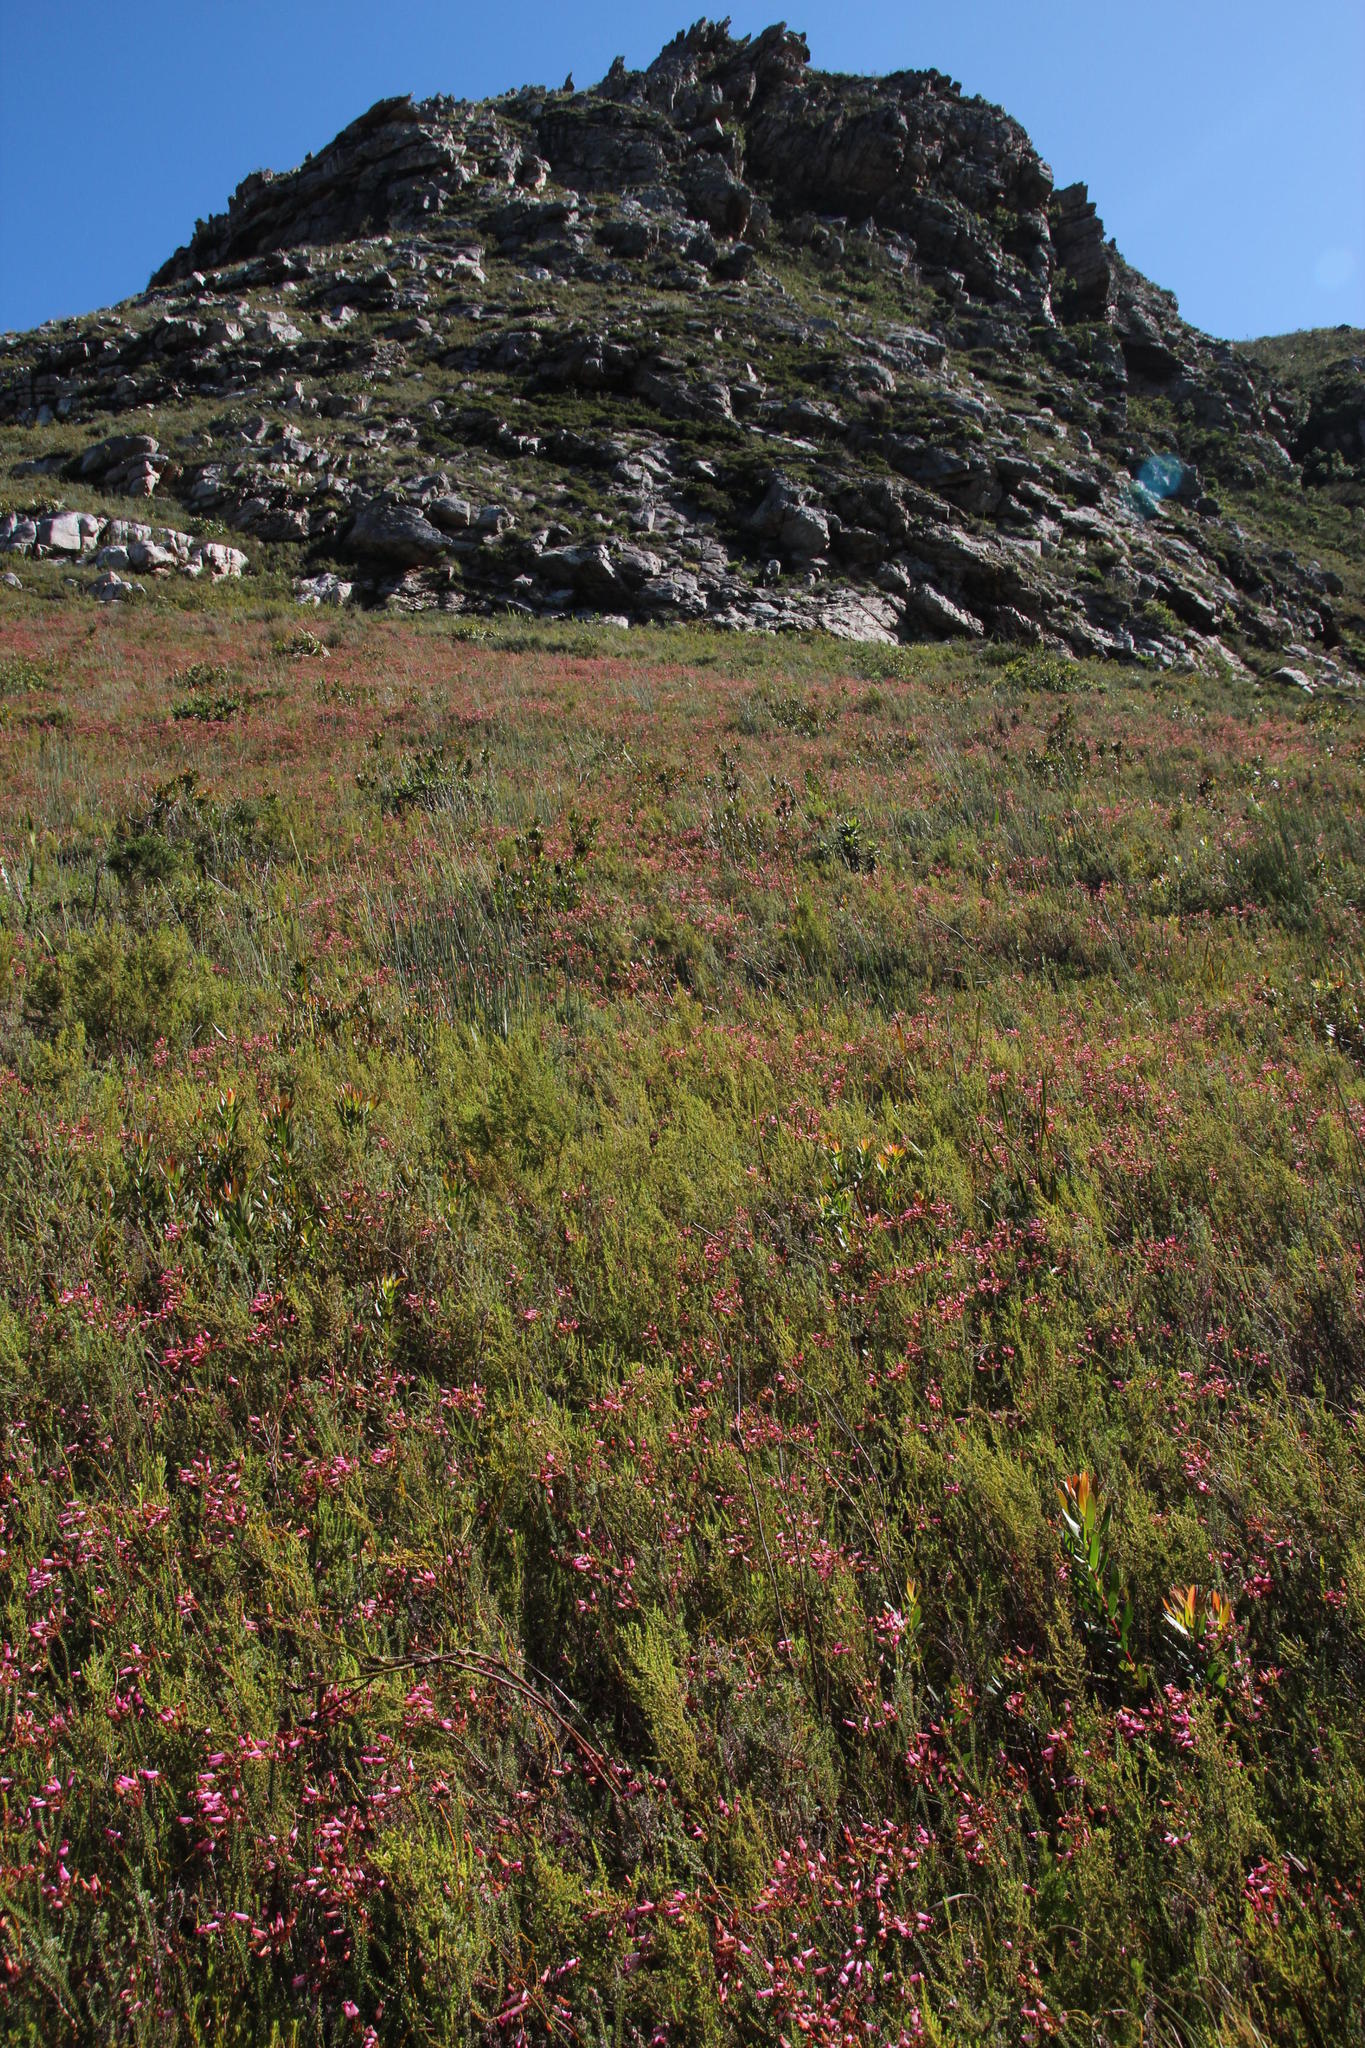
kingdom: Plantae
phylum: Tracheophyta
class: Magnoliopsida
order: Ericales
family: Ericaceae
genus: Erica
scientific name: Erica retorta
